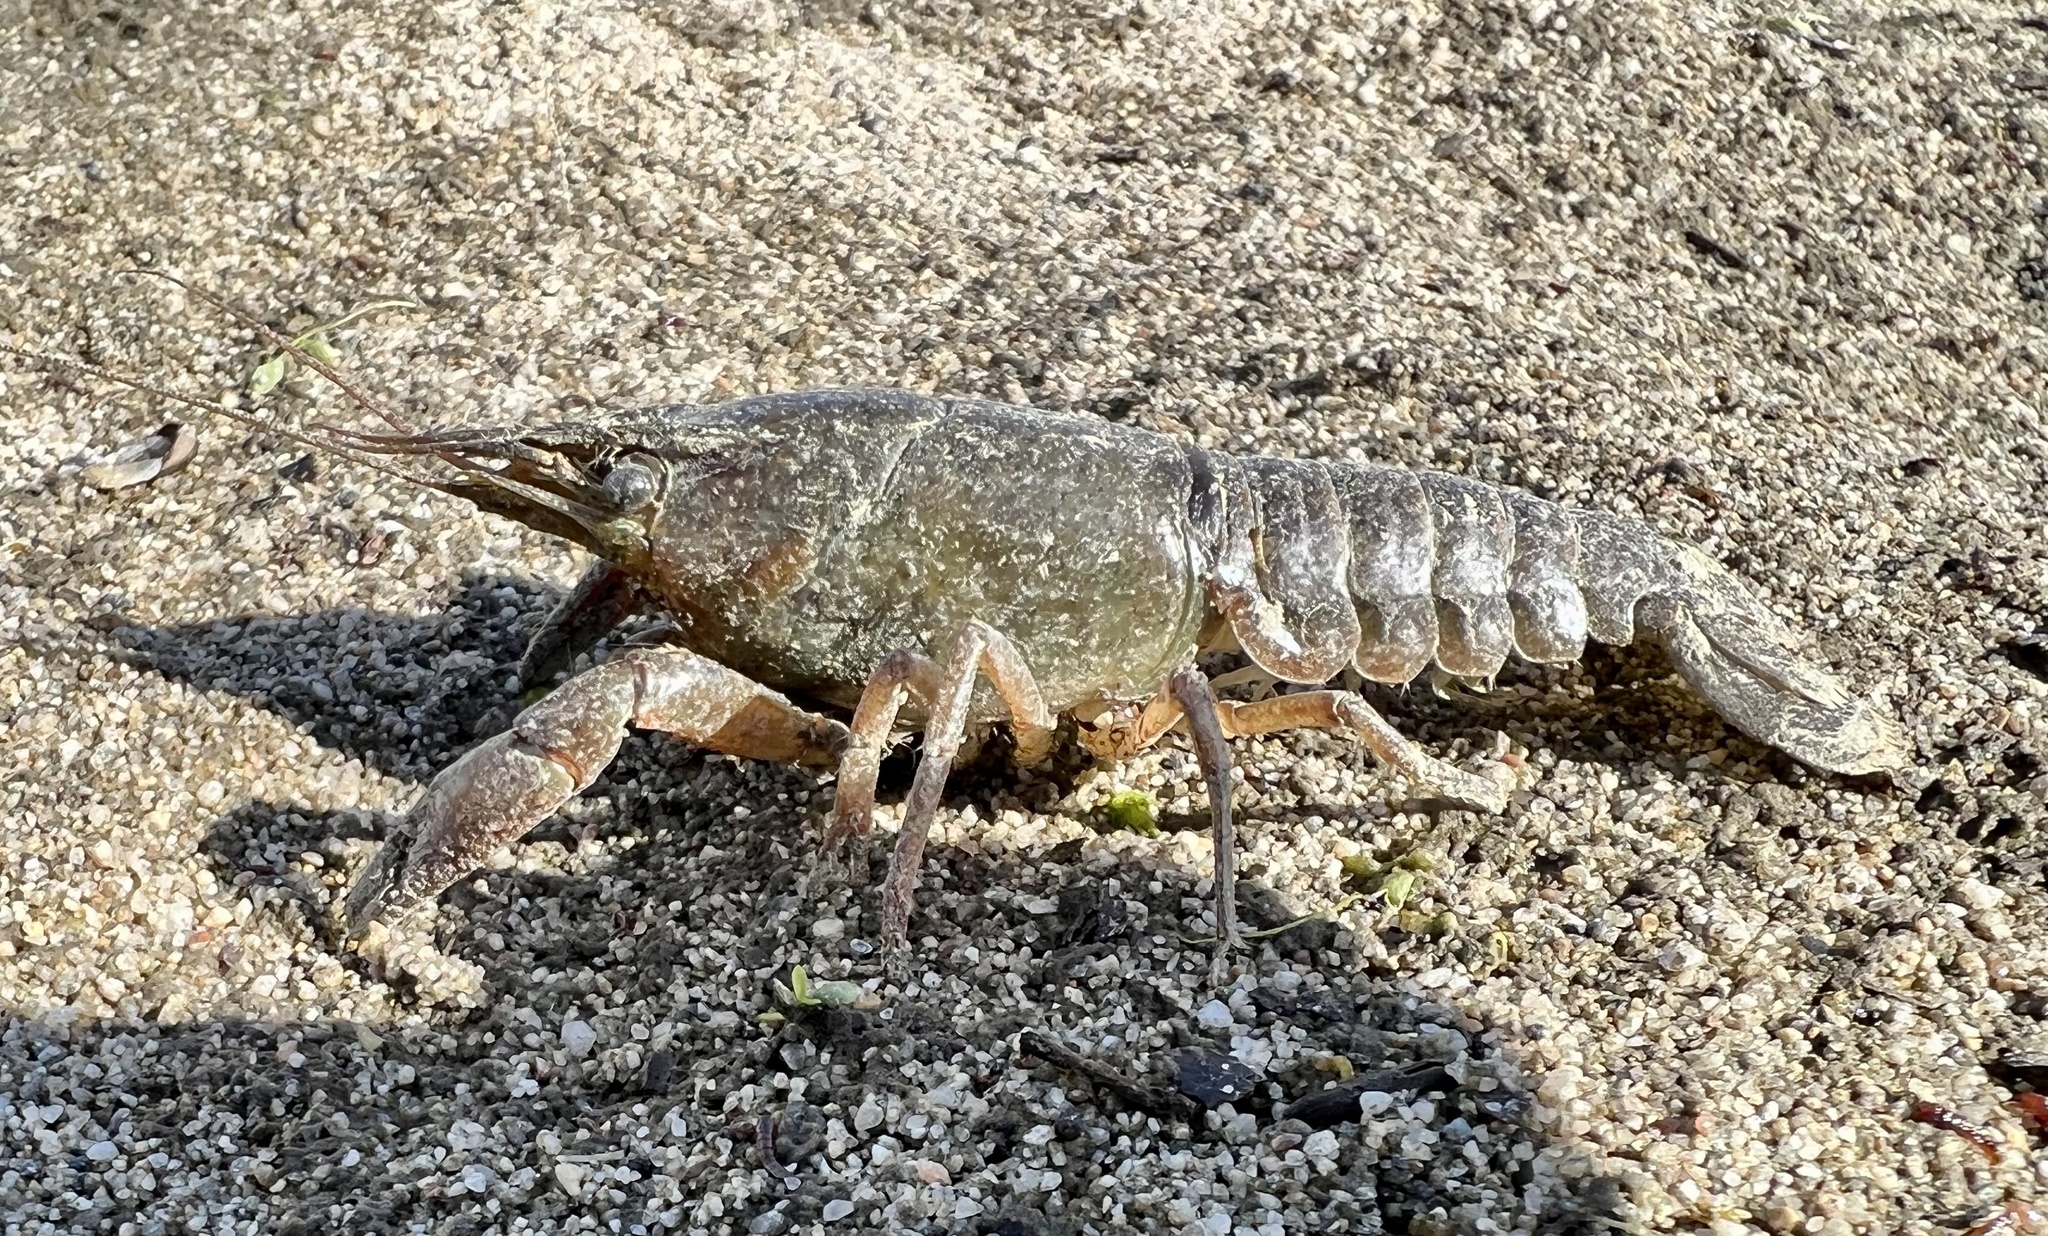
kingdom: Animalia
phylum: Arthropoda
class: Malacostraca
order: Decapoda
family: Cambaridae
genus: Procambarus
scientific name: Procambarus clarkii
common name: Red swamp crayfish
